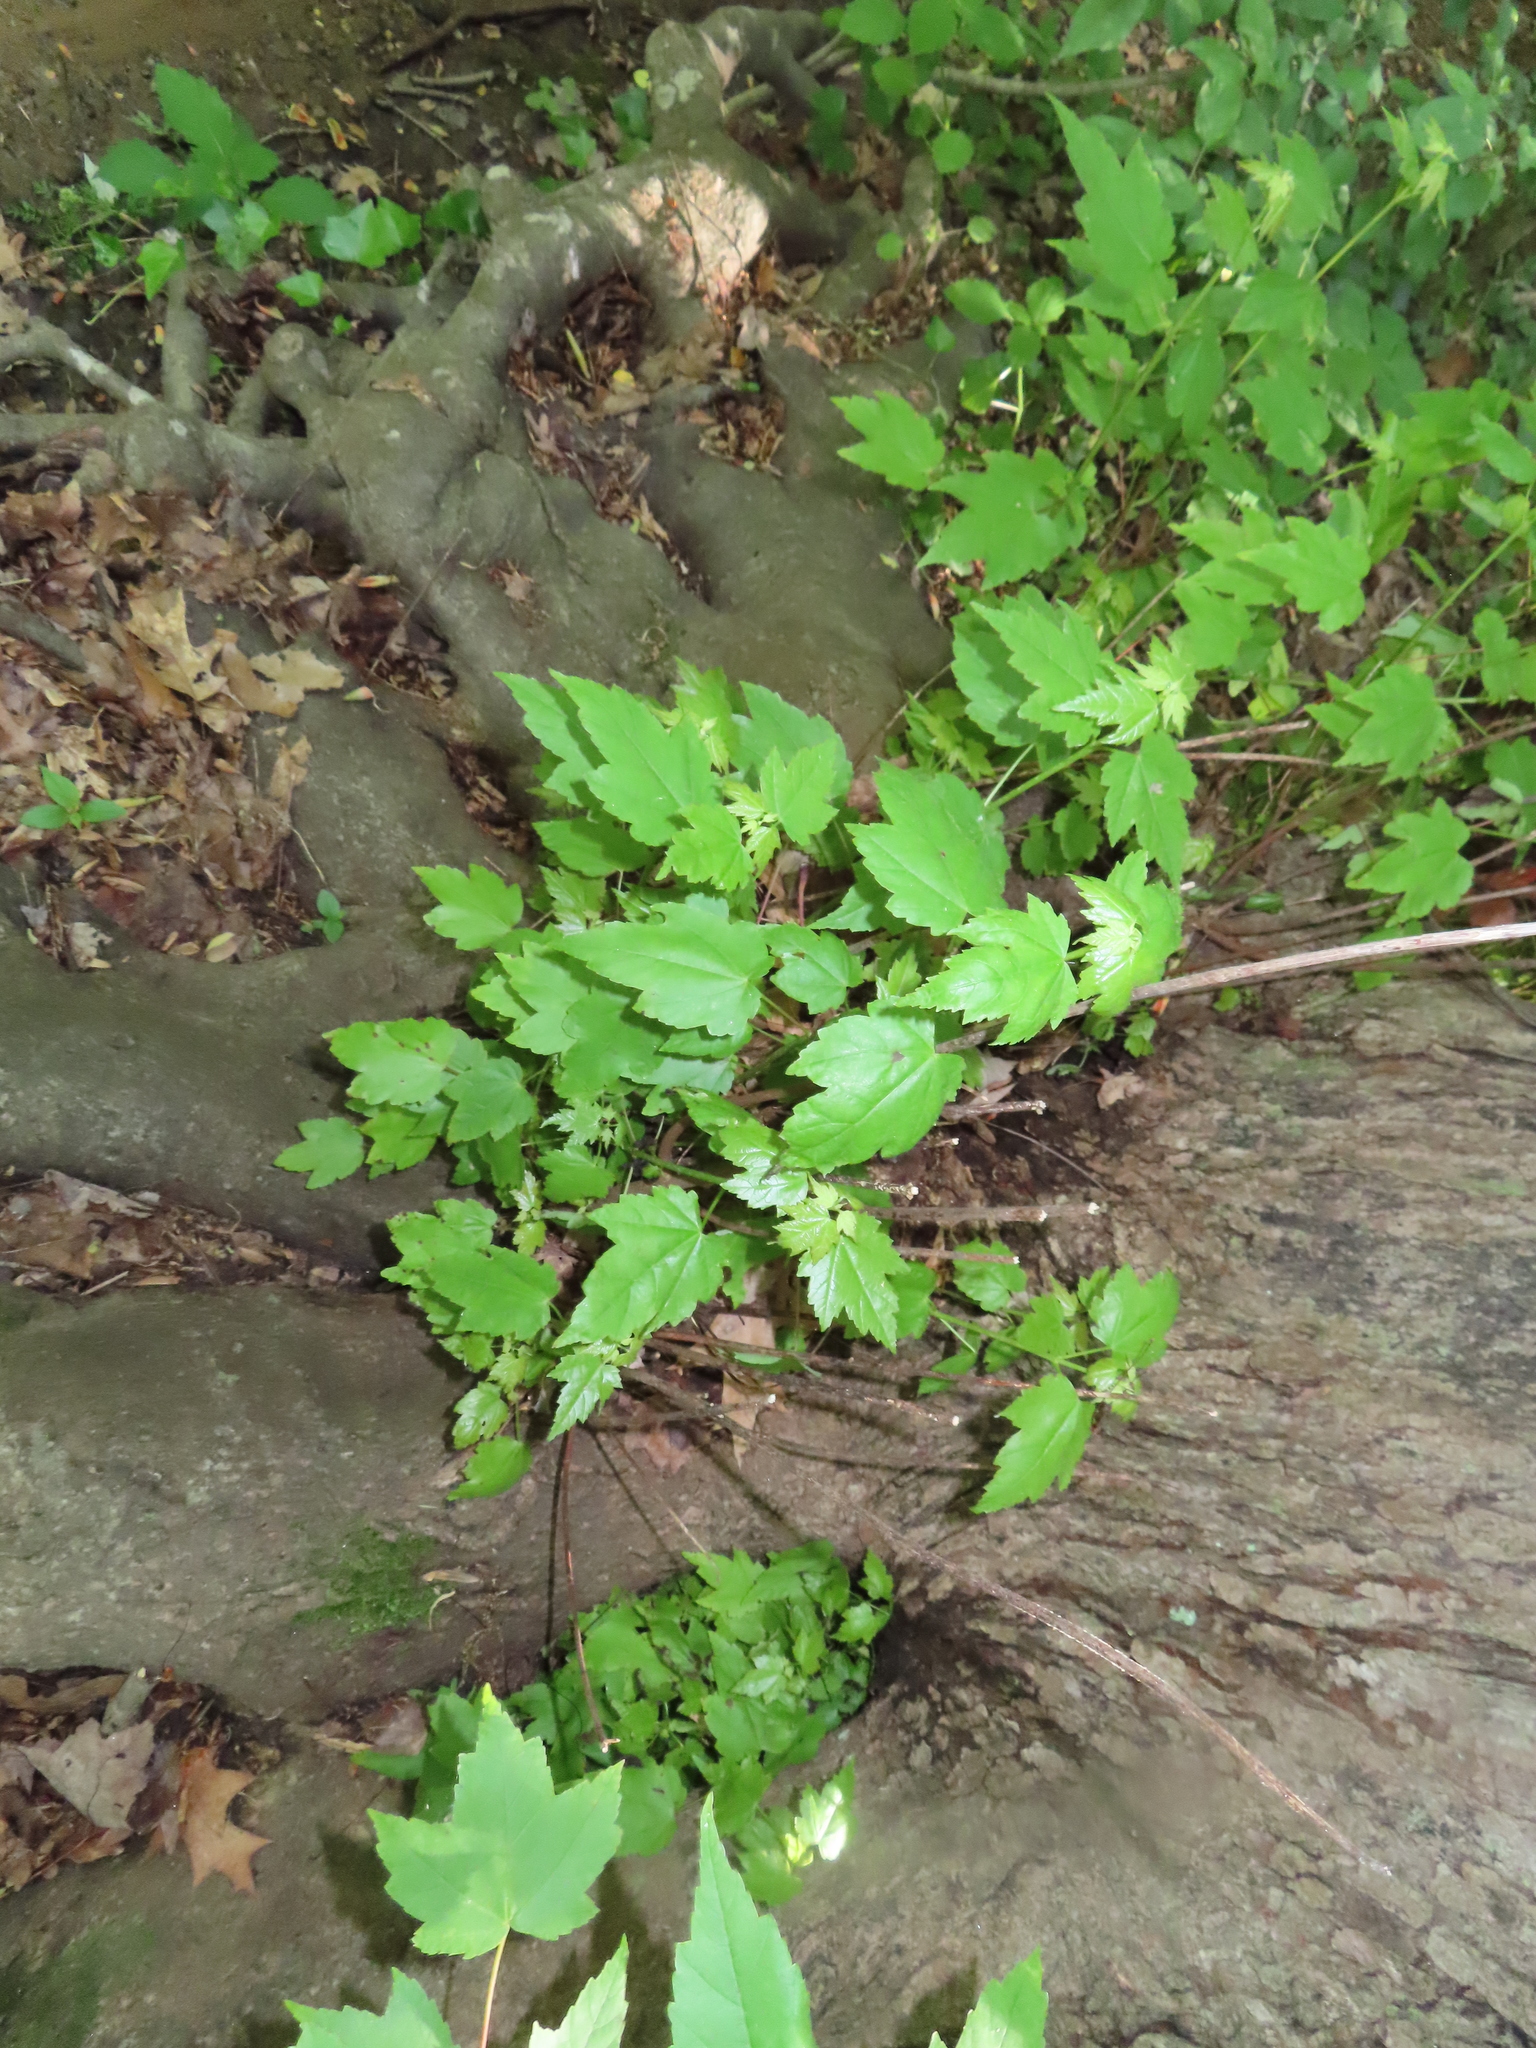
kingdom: Plantae
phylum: Tracheophyta
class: Magnoliopsida
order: Sapindales
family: Sapindaceae
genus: Acer
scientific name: Acer rubrum
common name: Red maple
